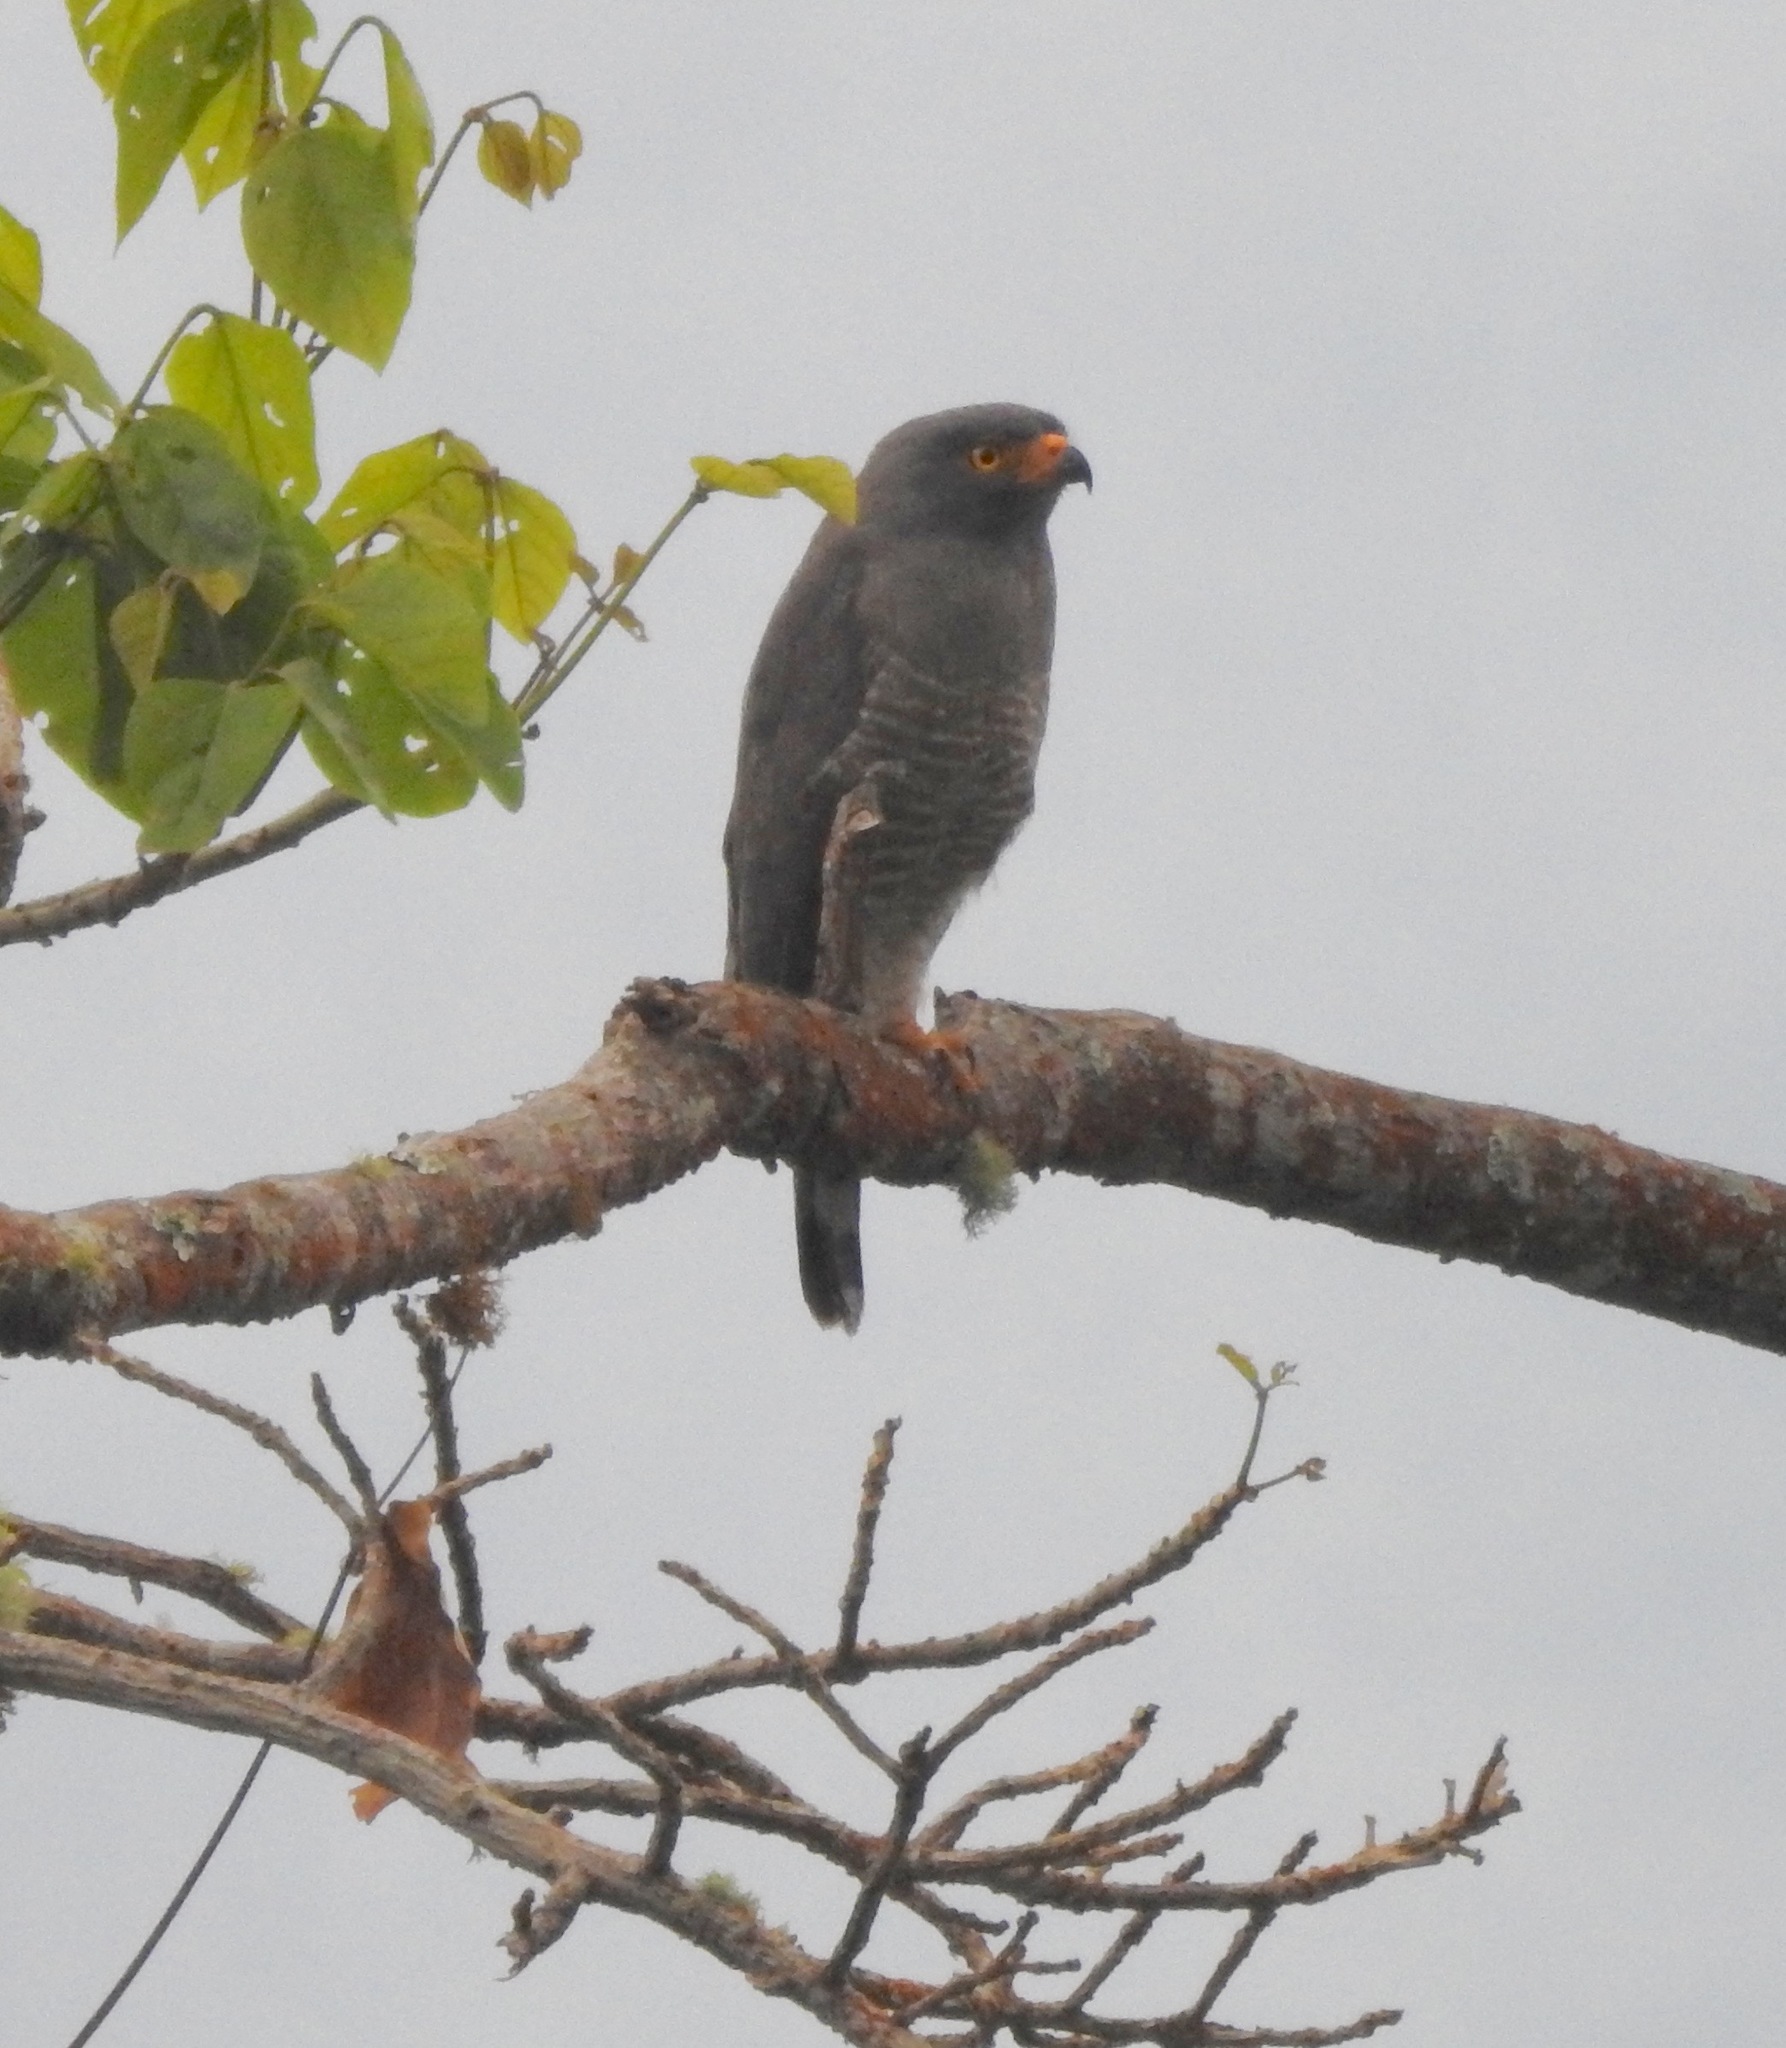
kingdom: Animalia
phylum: Chordata
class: Aves
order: Accipitriformes
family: Accipitridae
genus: Rupornis
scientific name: Rupornis magnirostris
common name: Roadside hawk
